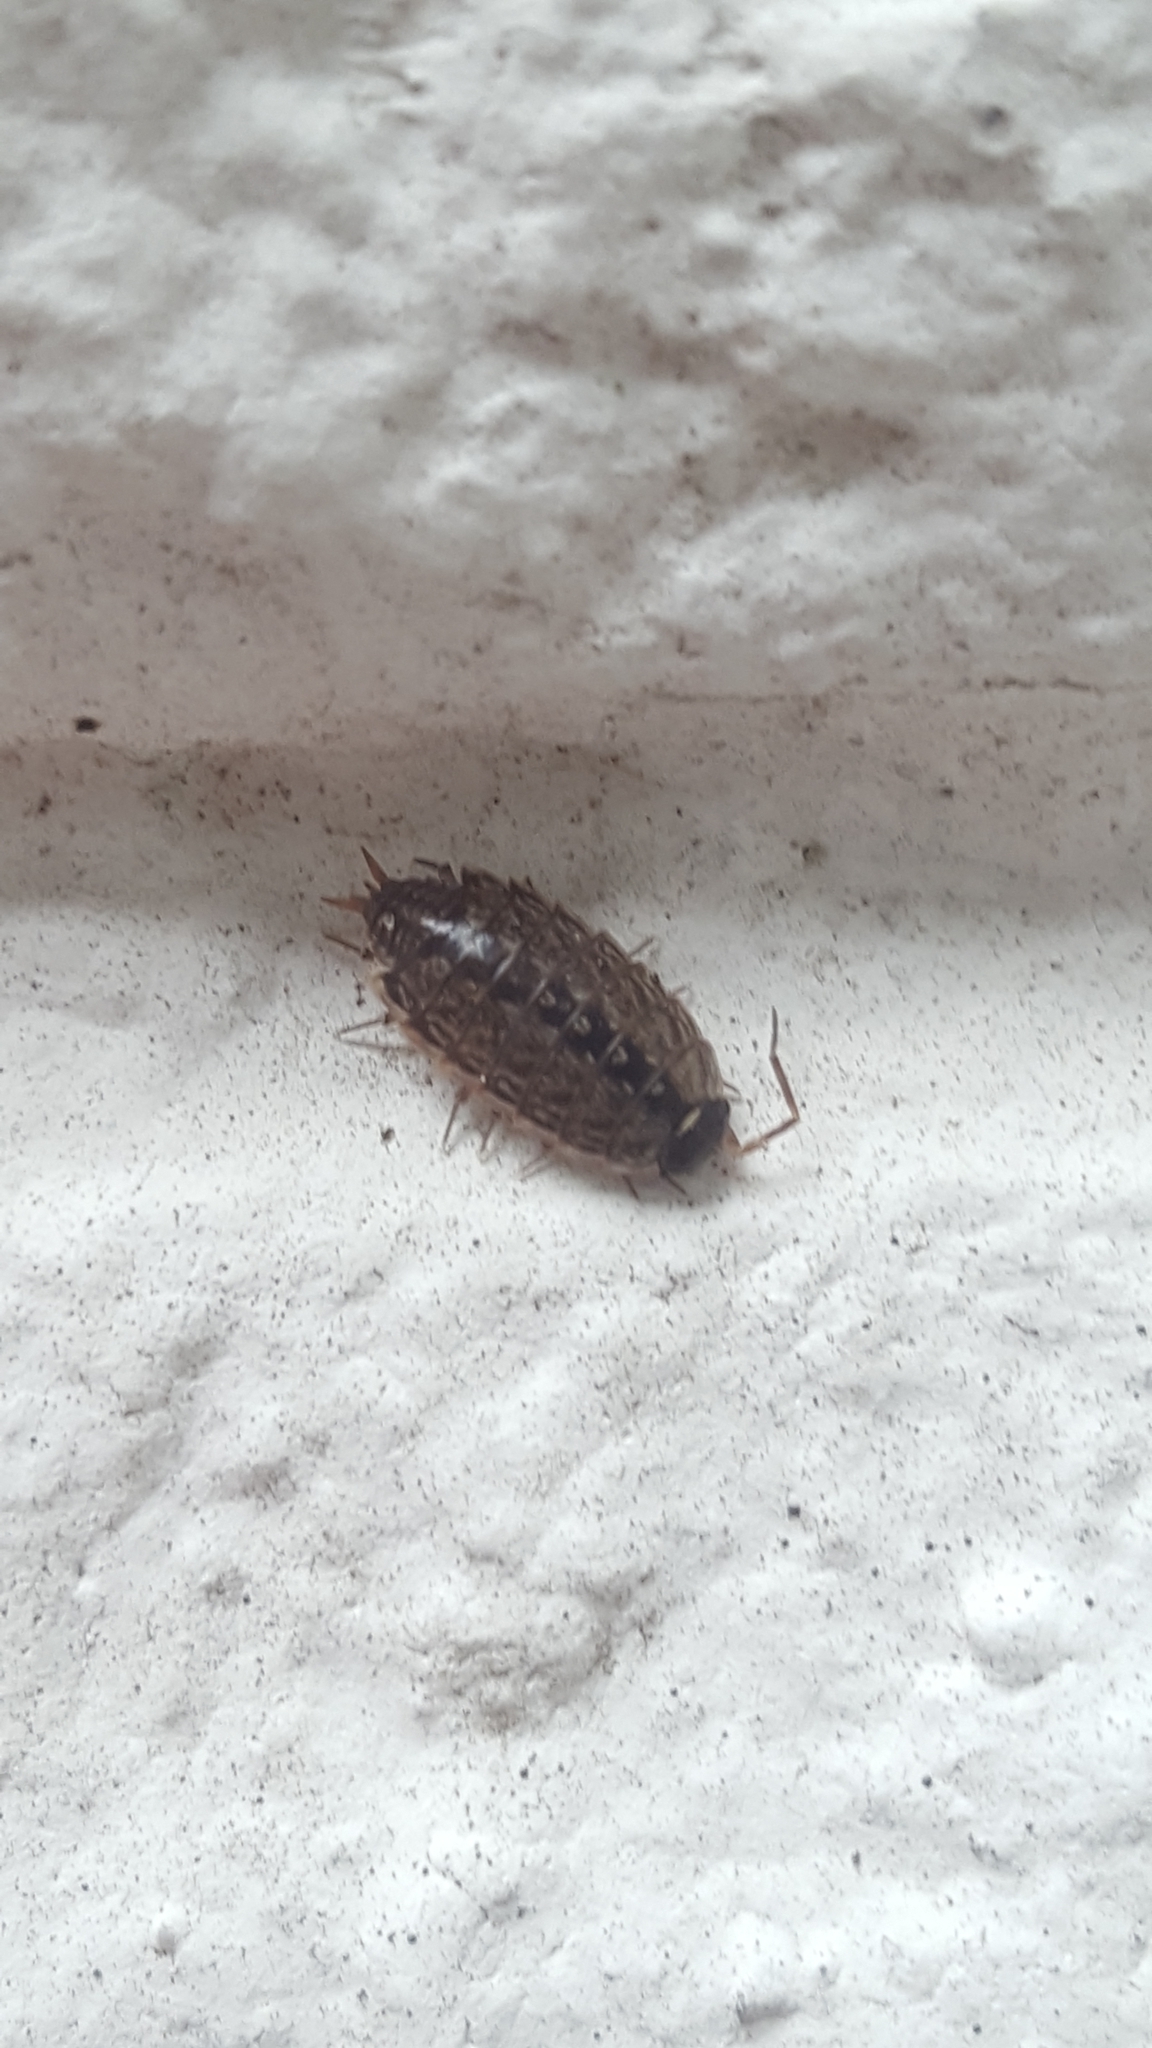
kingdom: Animalia
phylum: Arthropoda
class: Malacostraca
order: Isopoda
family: Philosciidae
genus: Philoscia
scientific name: Philoscia muscorum
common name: Common striped woodlouse
